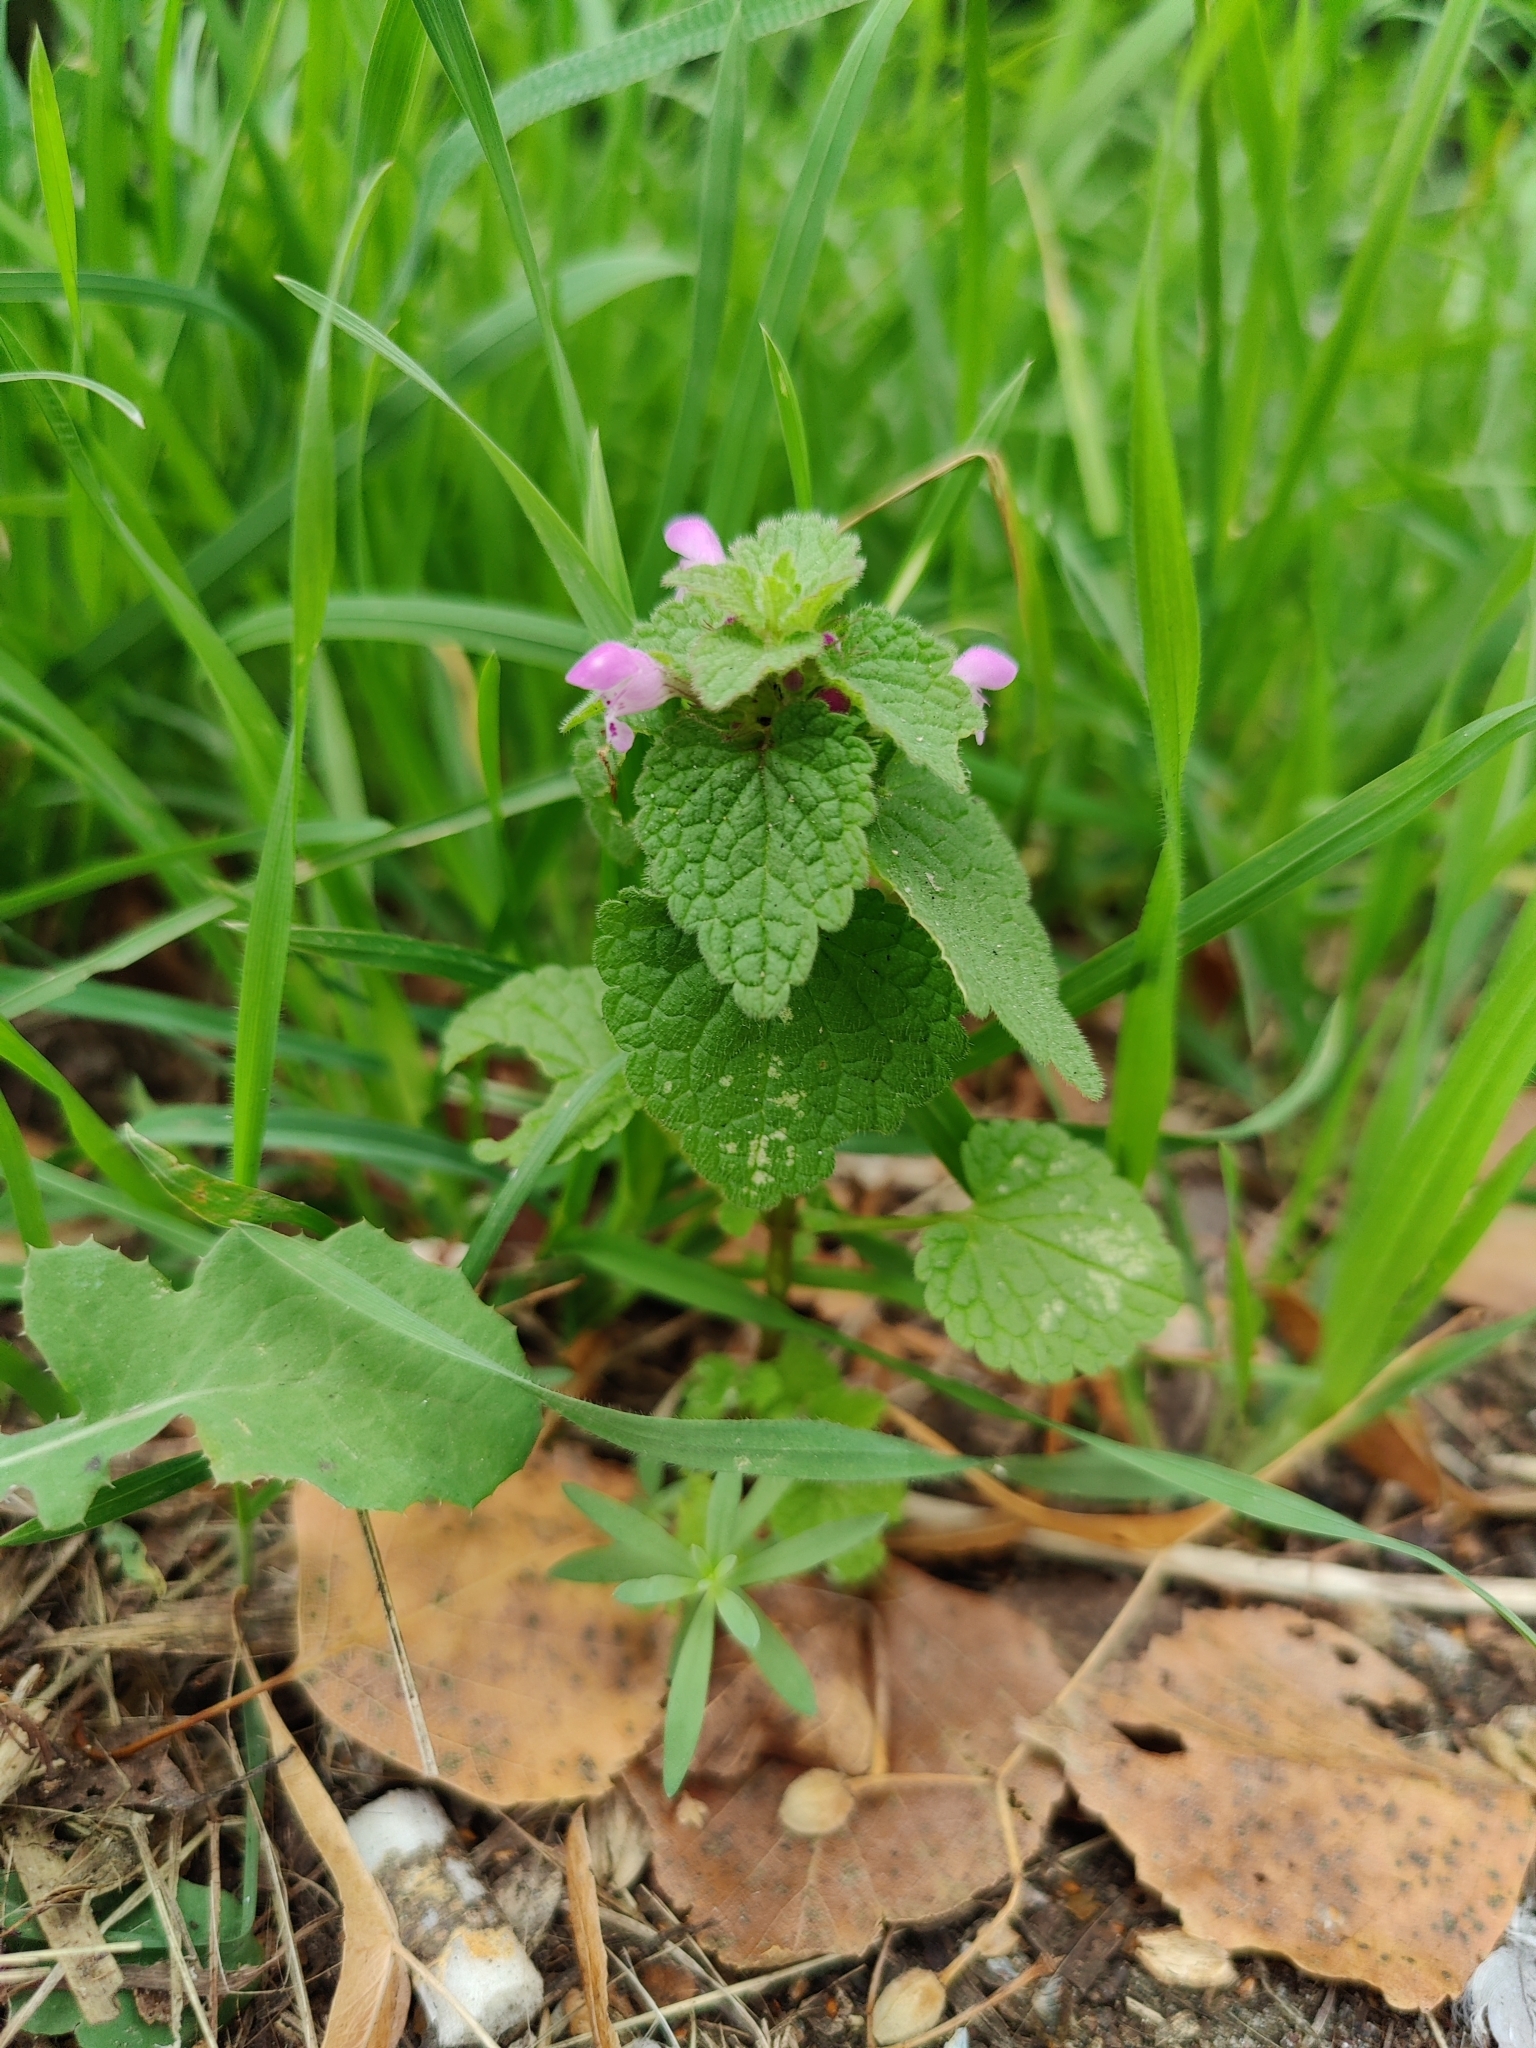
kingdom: Plantae
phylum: Tracheophyta
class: Magnoliopsida
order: Lamiales
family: Lamiaceae
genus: Lamium
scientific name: Lamium purpureum
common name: Red dead-nettle
